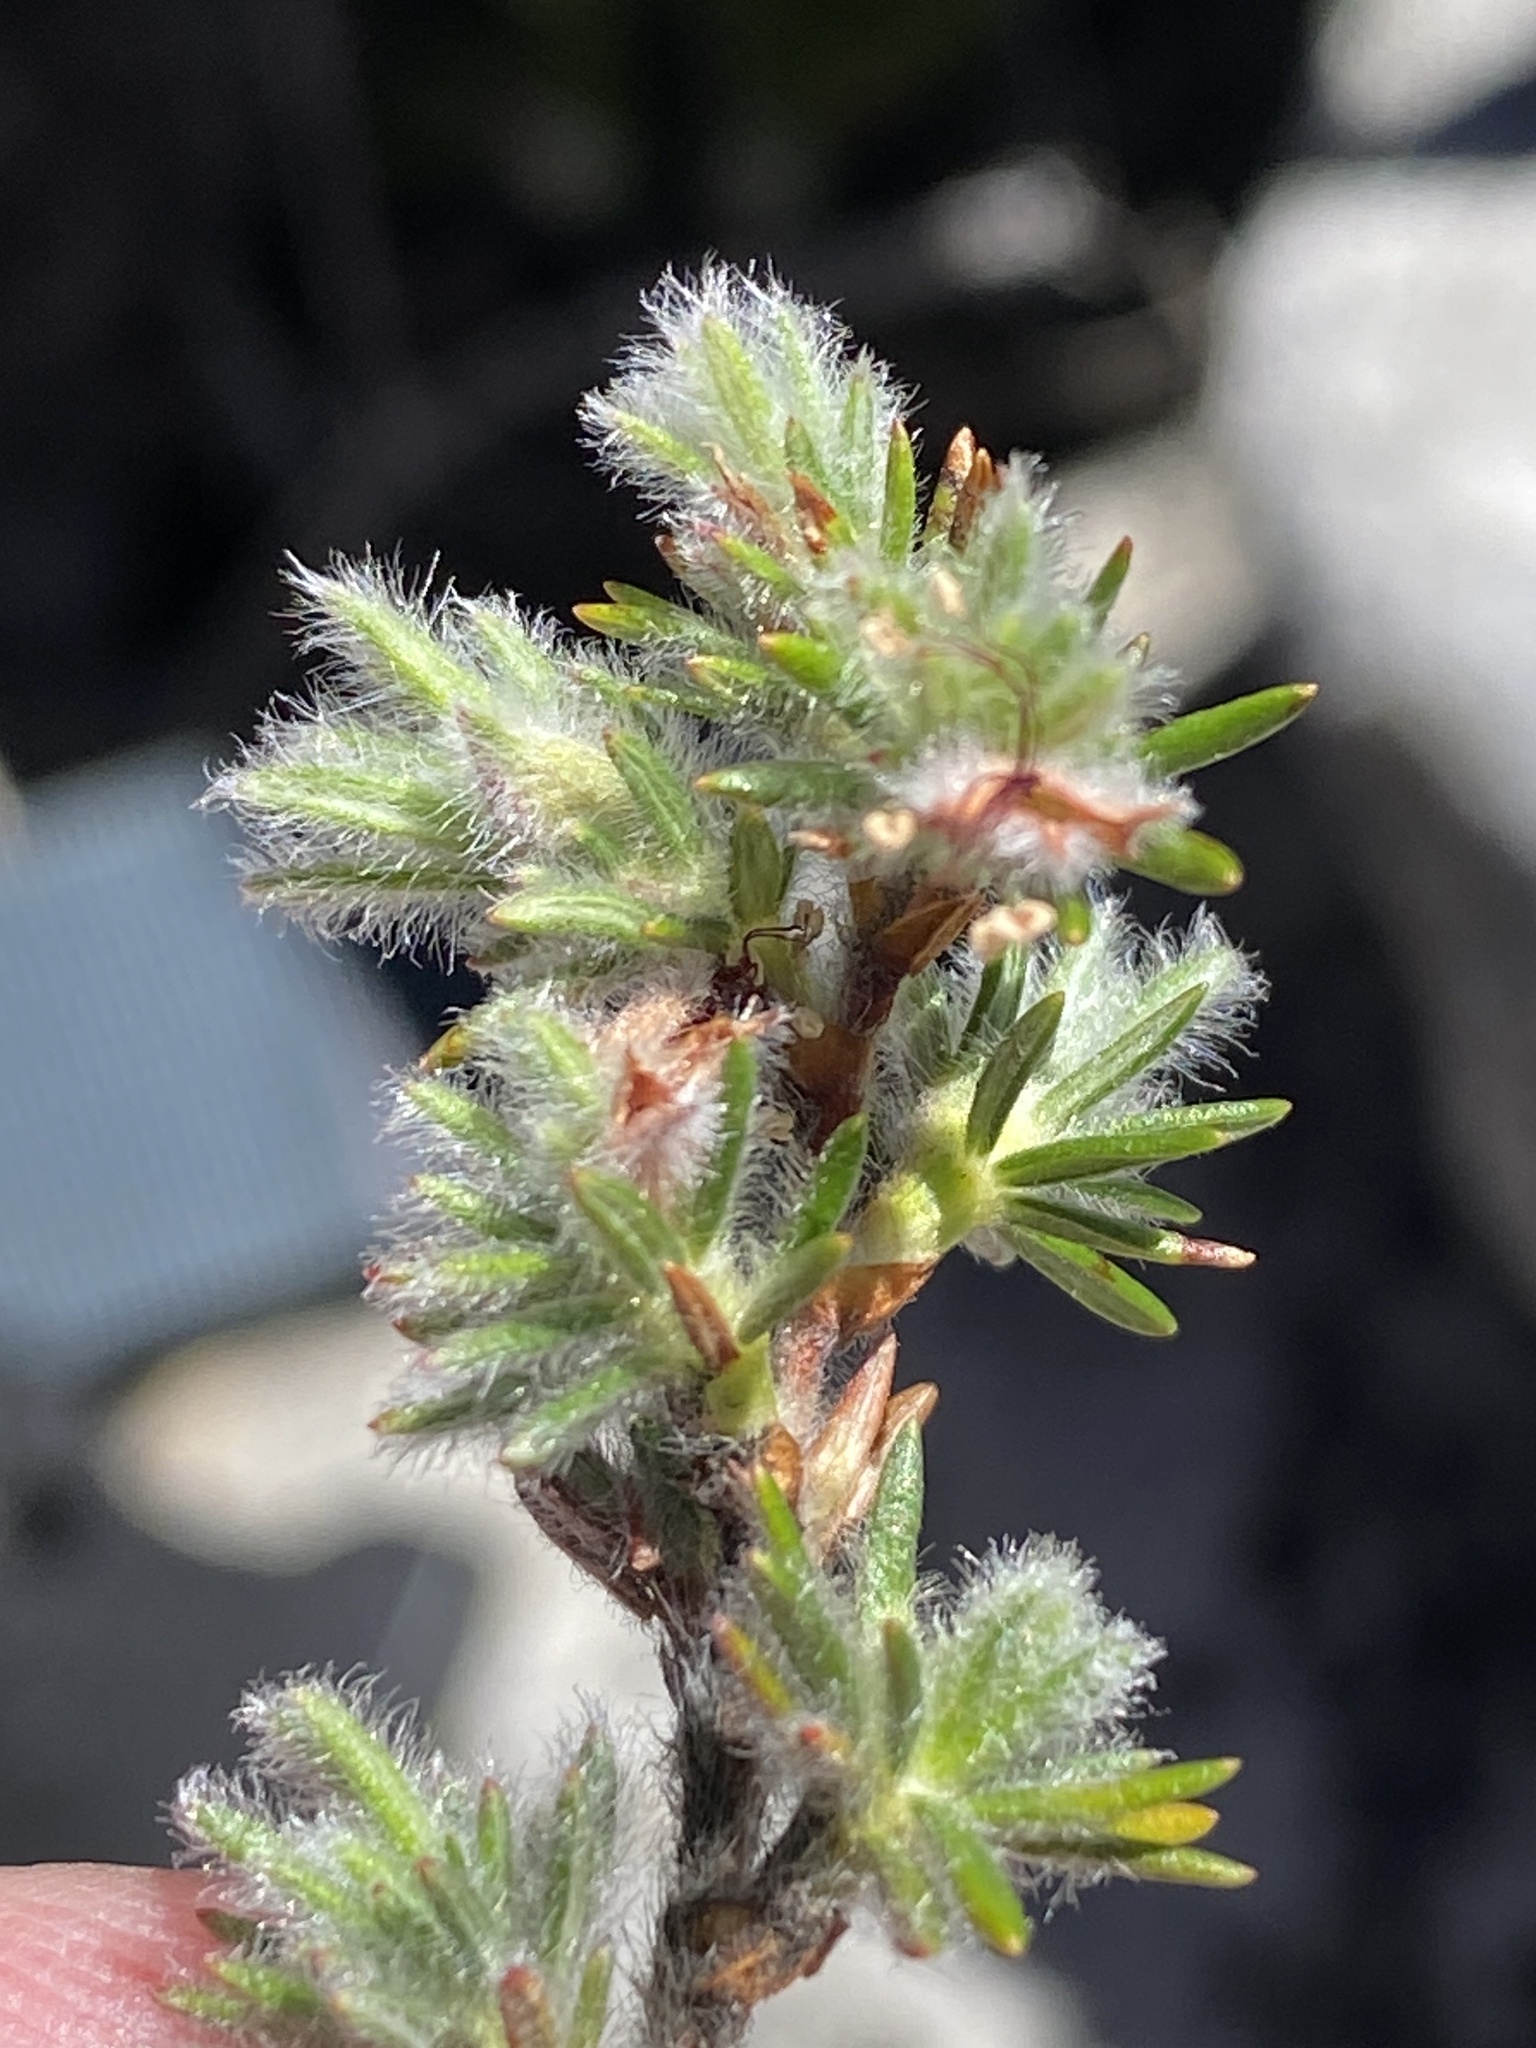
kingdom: Plantae
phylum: Tracheophyta
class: Magnoliopsida
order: Rosales
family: Rosaceae
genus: Cliffortia
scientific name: Cliffortia eriocephalina
